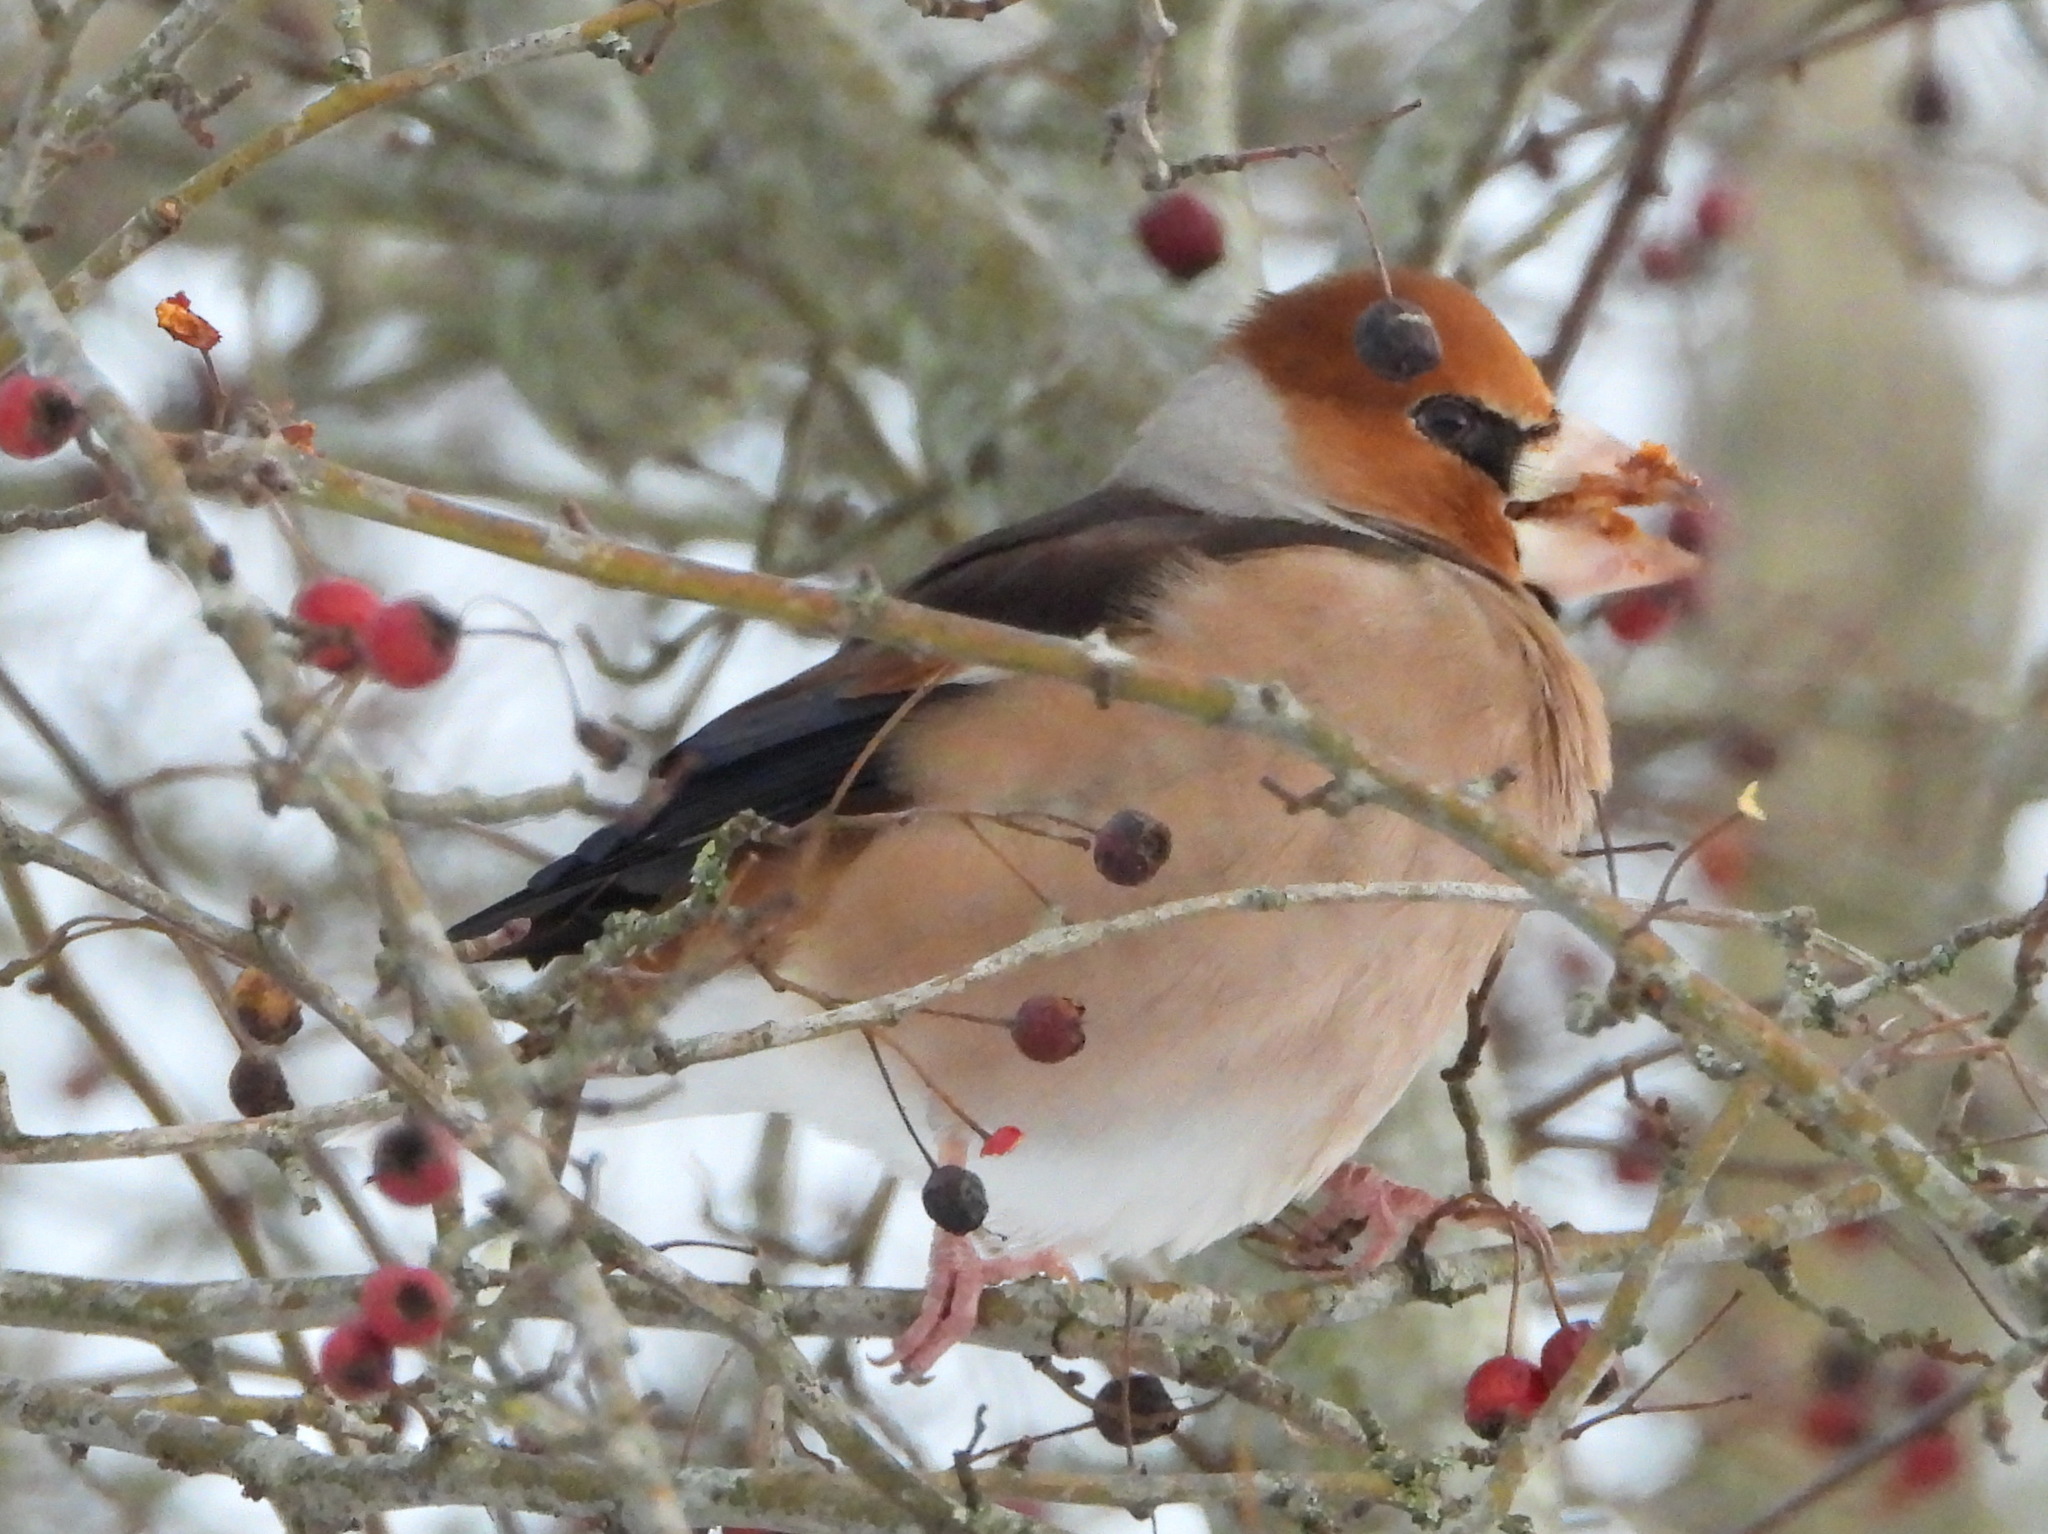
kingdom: Animalia
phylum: Chordata
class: Aves
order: Passeriformes
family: Fringillidae
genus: Coccothraustes
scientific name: Coccothraustes coccothraustes
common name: Hawfinch
